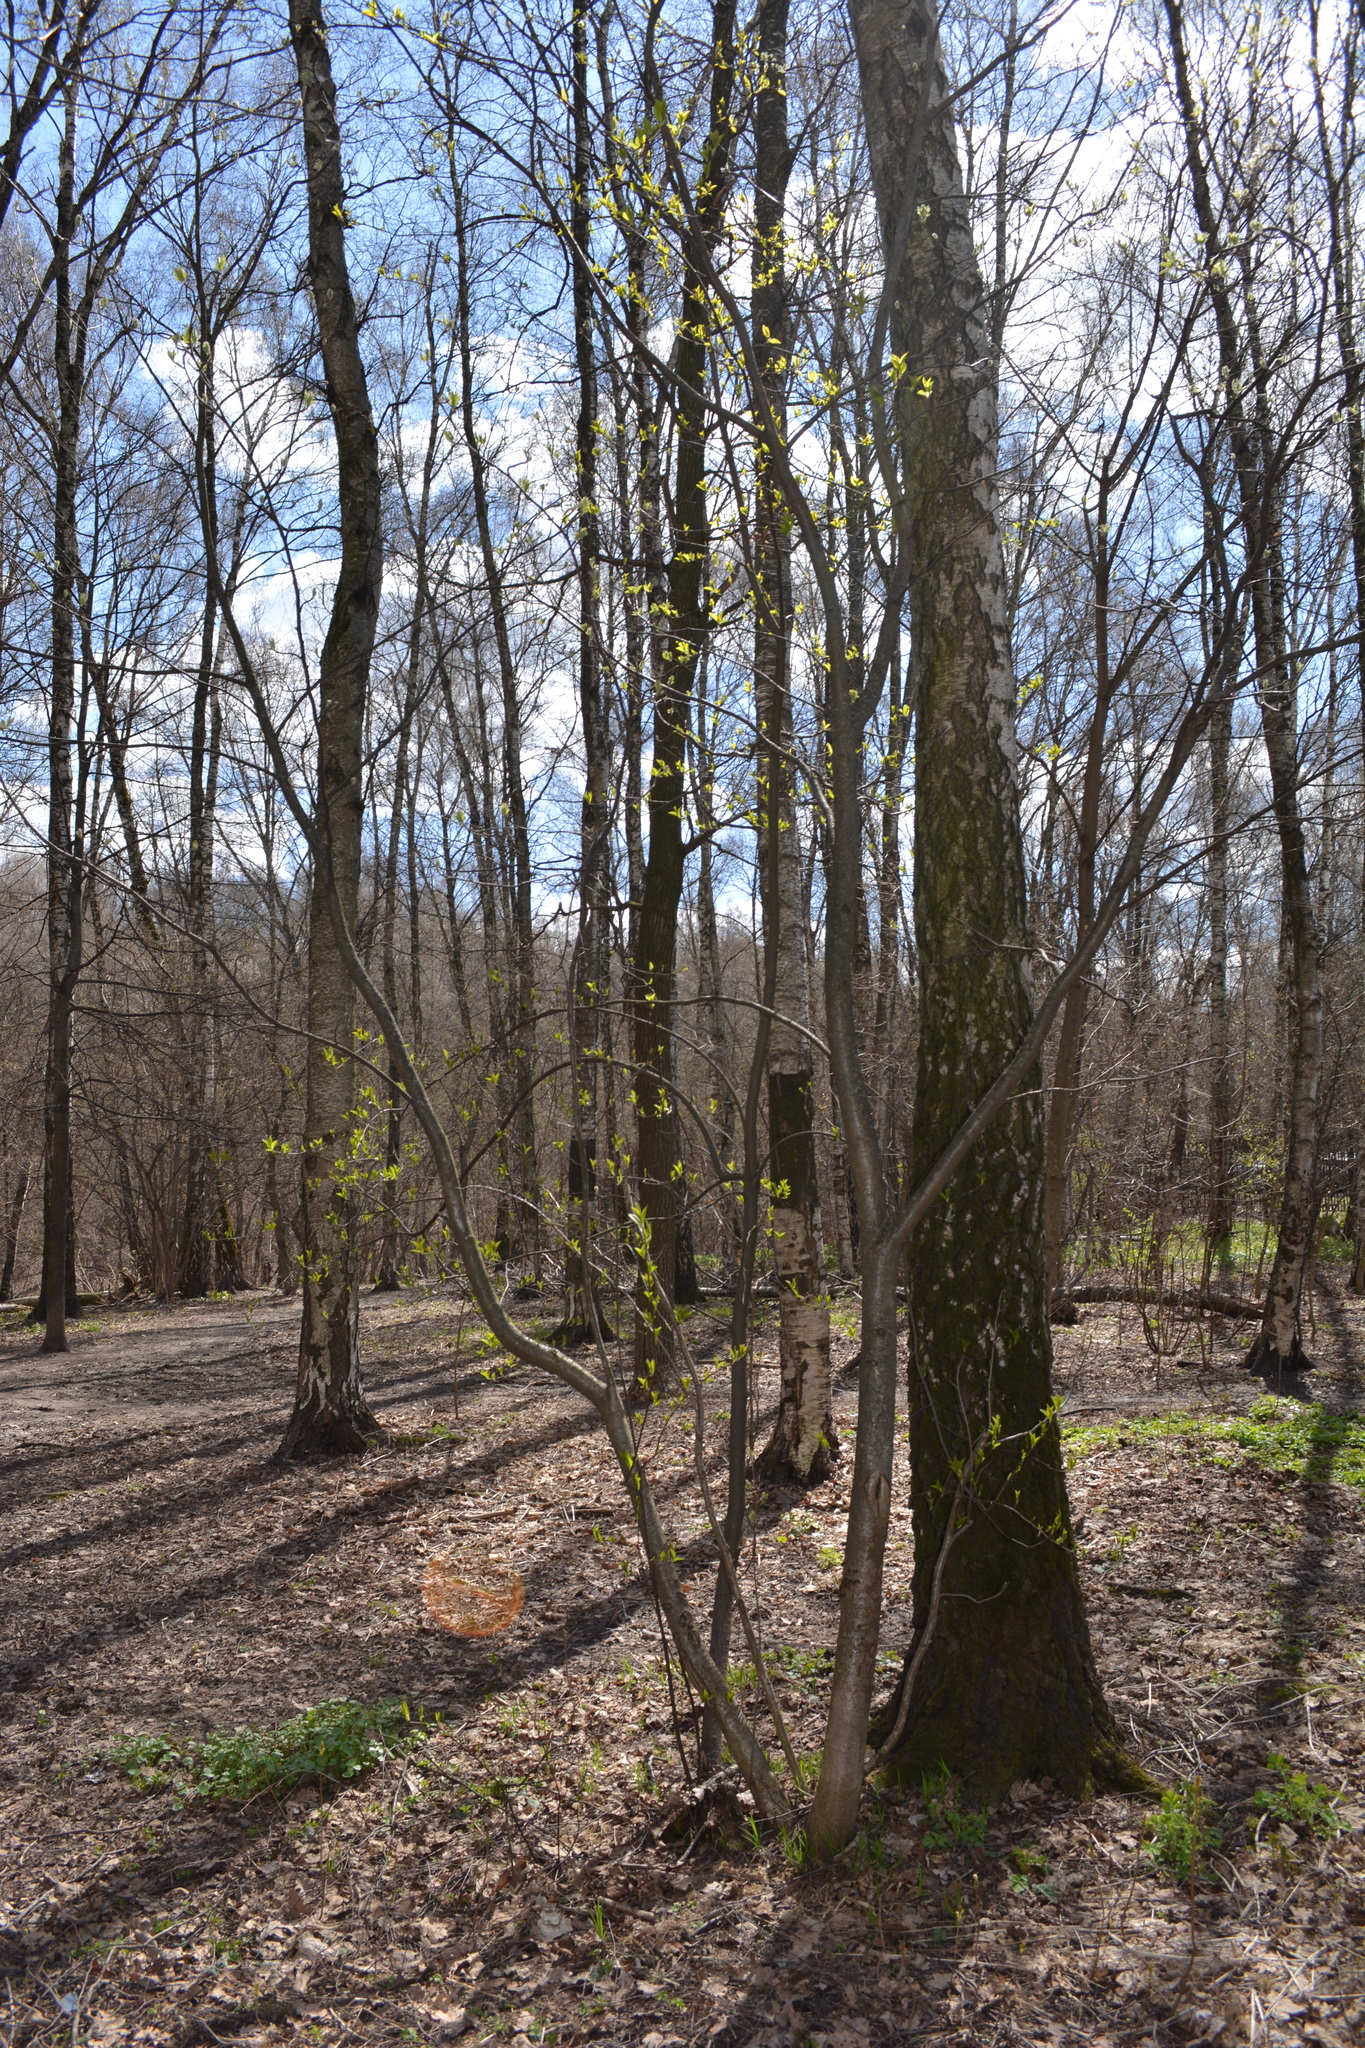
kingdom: Plantae
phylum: Tracheophyta
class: Magnoliopsida
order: Rosales
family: Rosaceae
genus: Prunus
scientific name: Prunus padus
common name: Bird cherry
